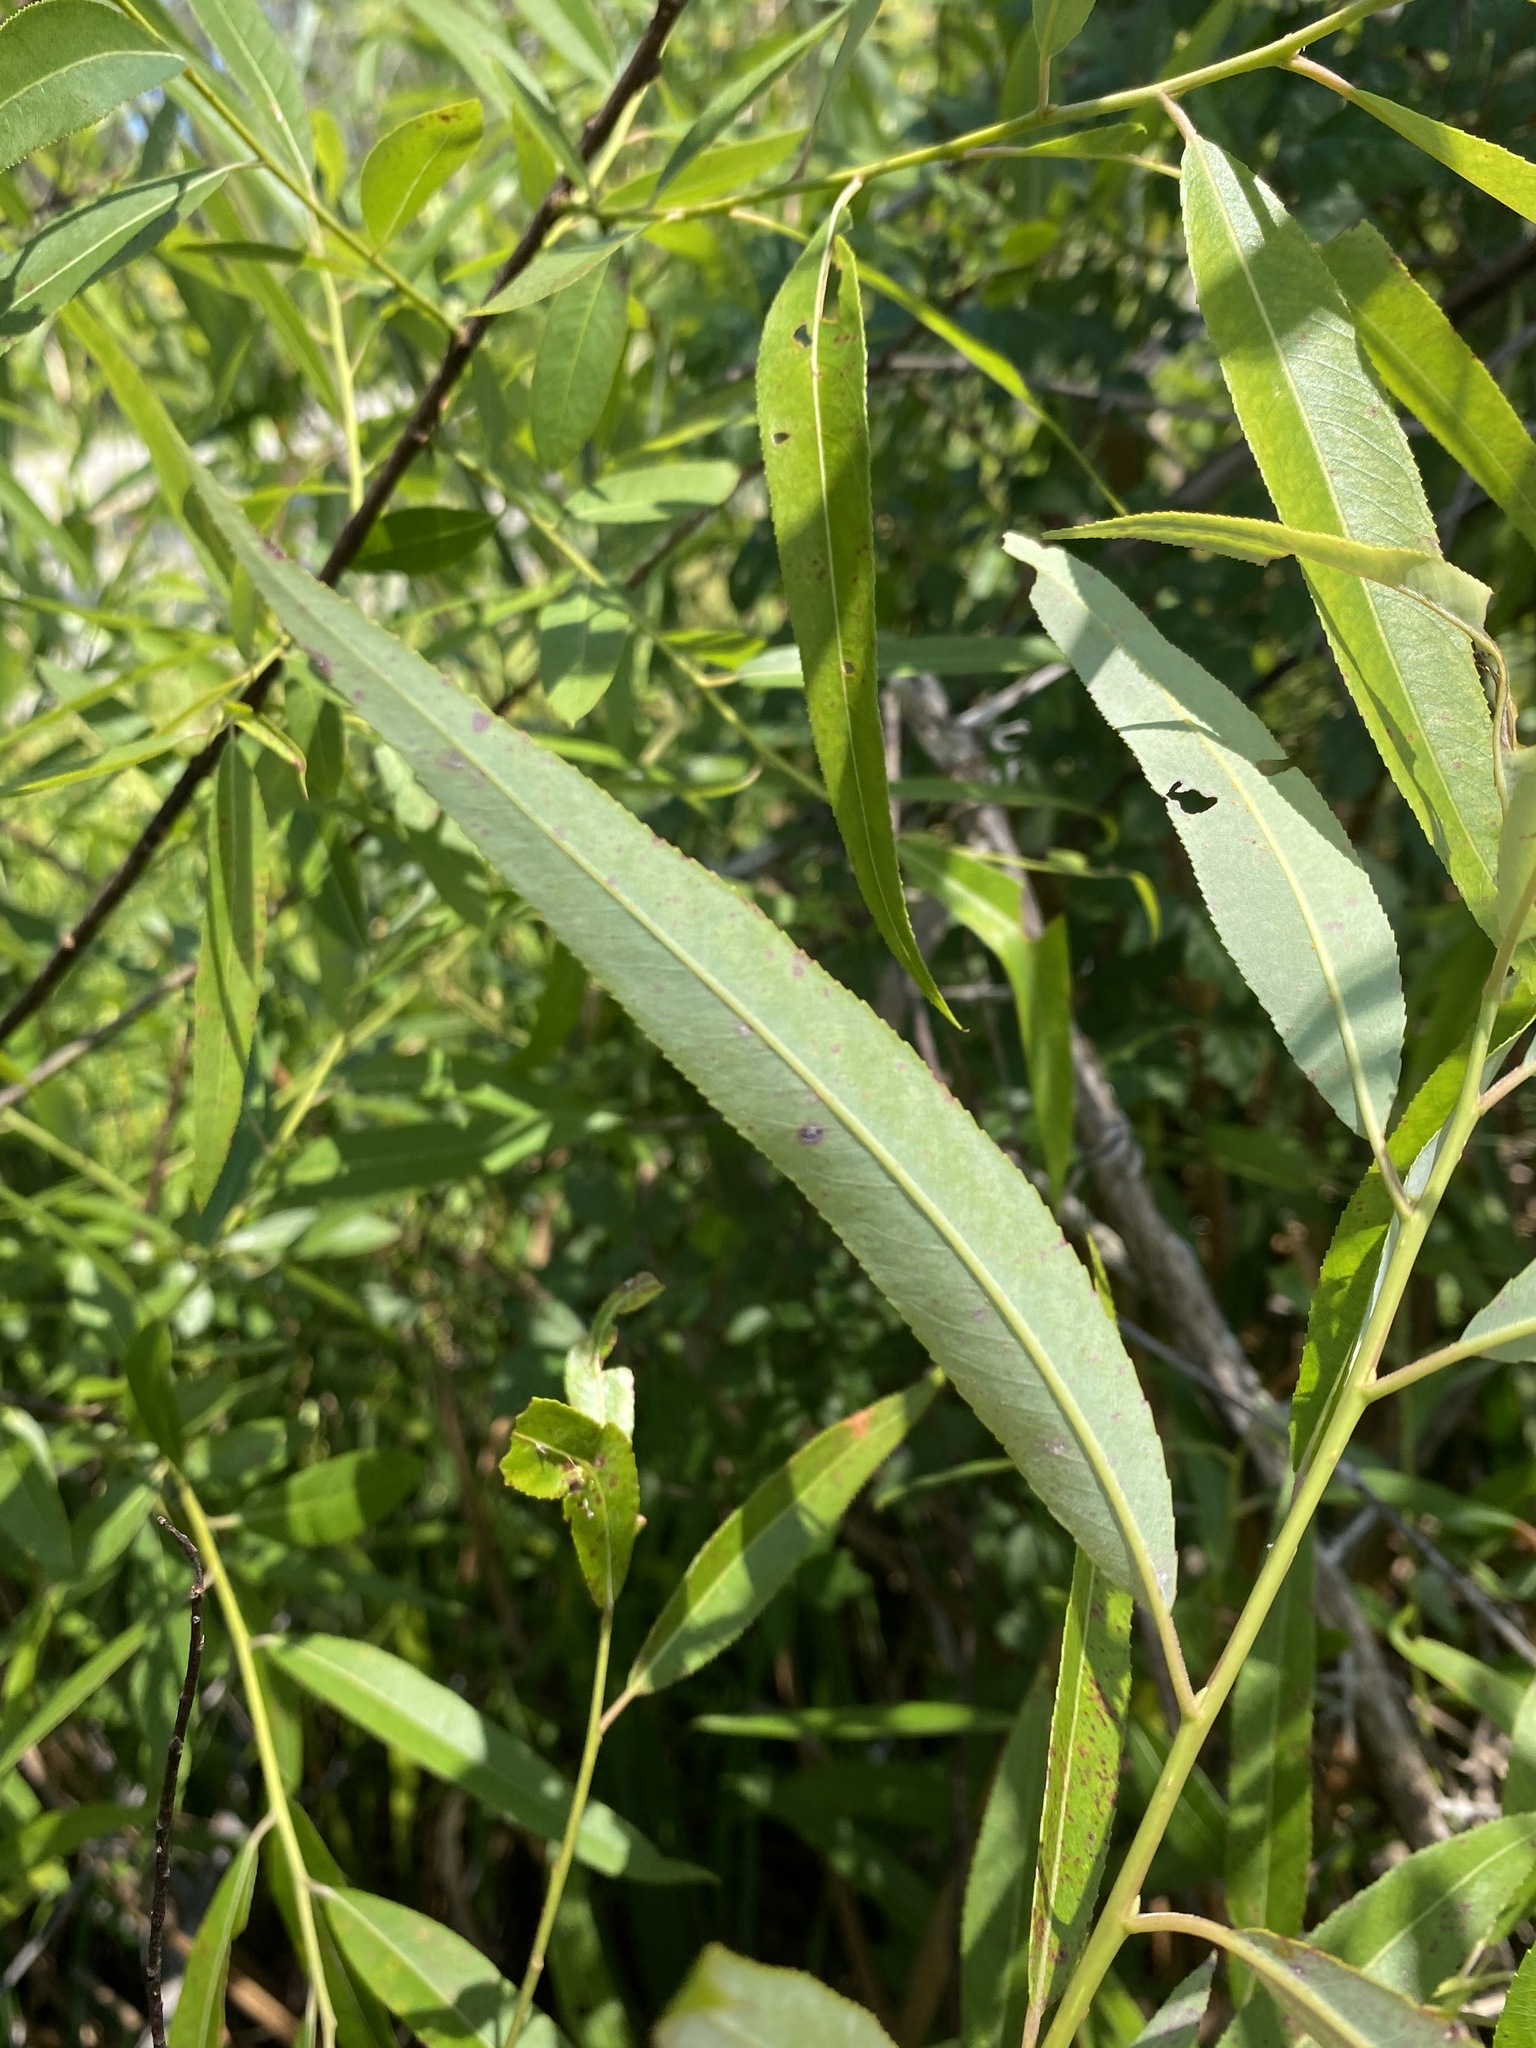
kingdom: Plantae
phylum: Tracheophyta
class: Magnoliopsida
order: Malpighiales
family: Salicaceae
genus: Salix
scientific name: Salix caroliniana
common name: Carolina willow
